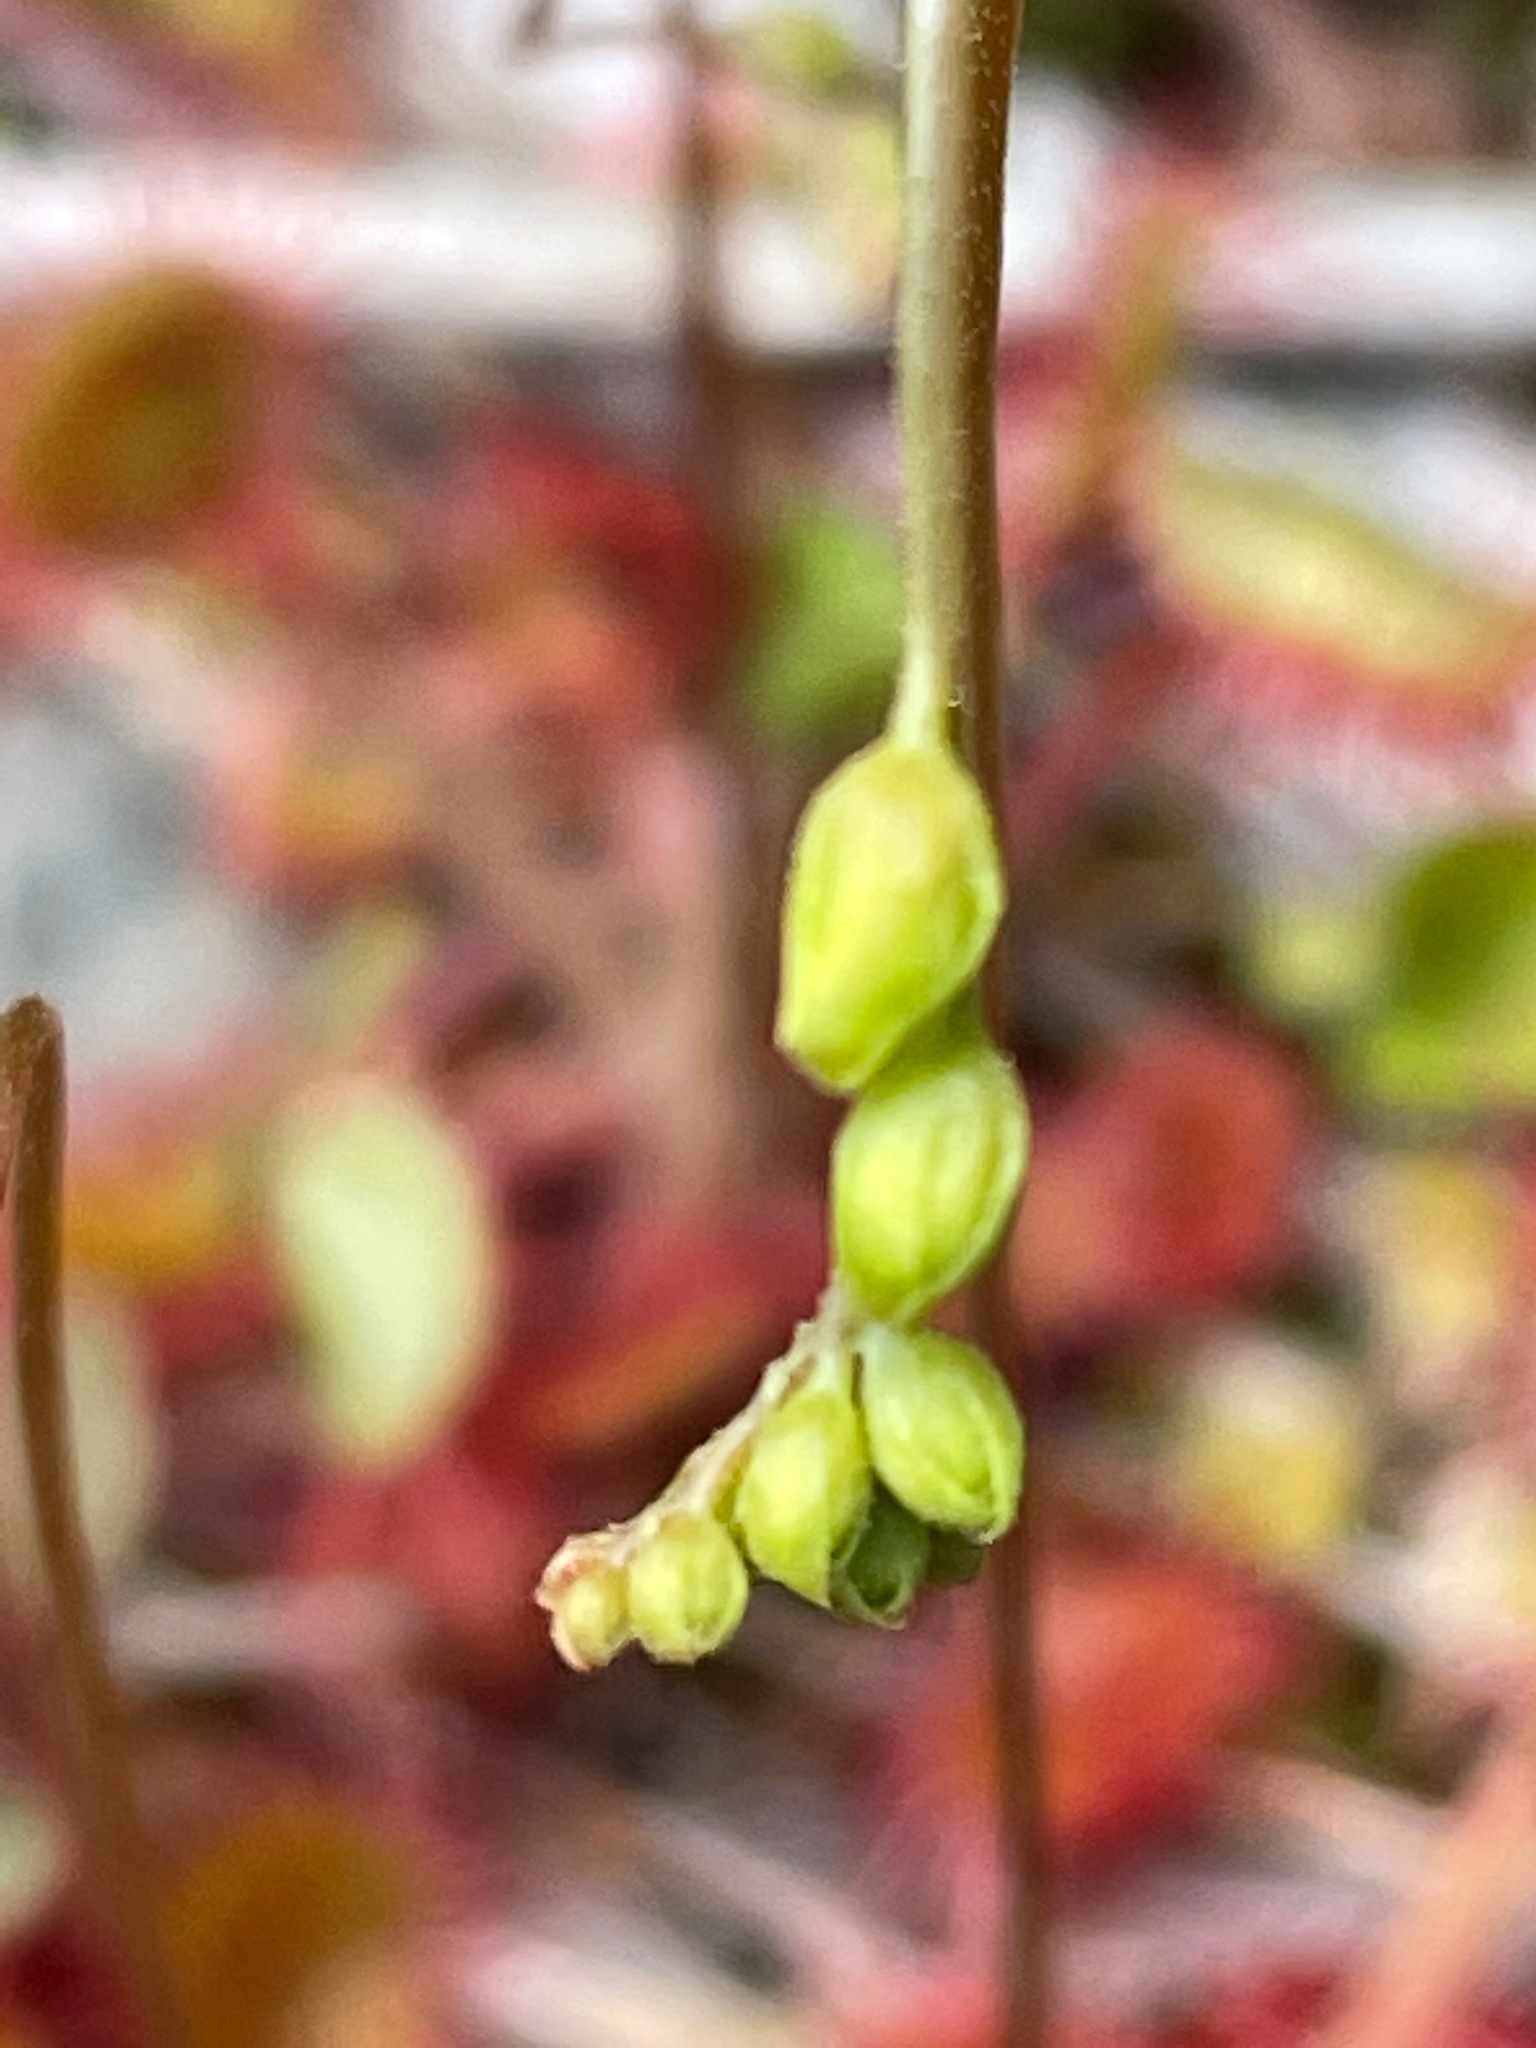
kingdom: Plantae
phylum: Tracheophyta
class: Magnoliopsida
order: Caryophyllales
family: Droseraceae
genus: Drosera
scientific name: Drosera rotundifolia
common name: Round-leaved sundew
